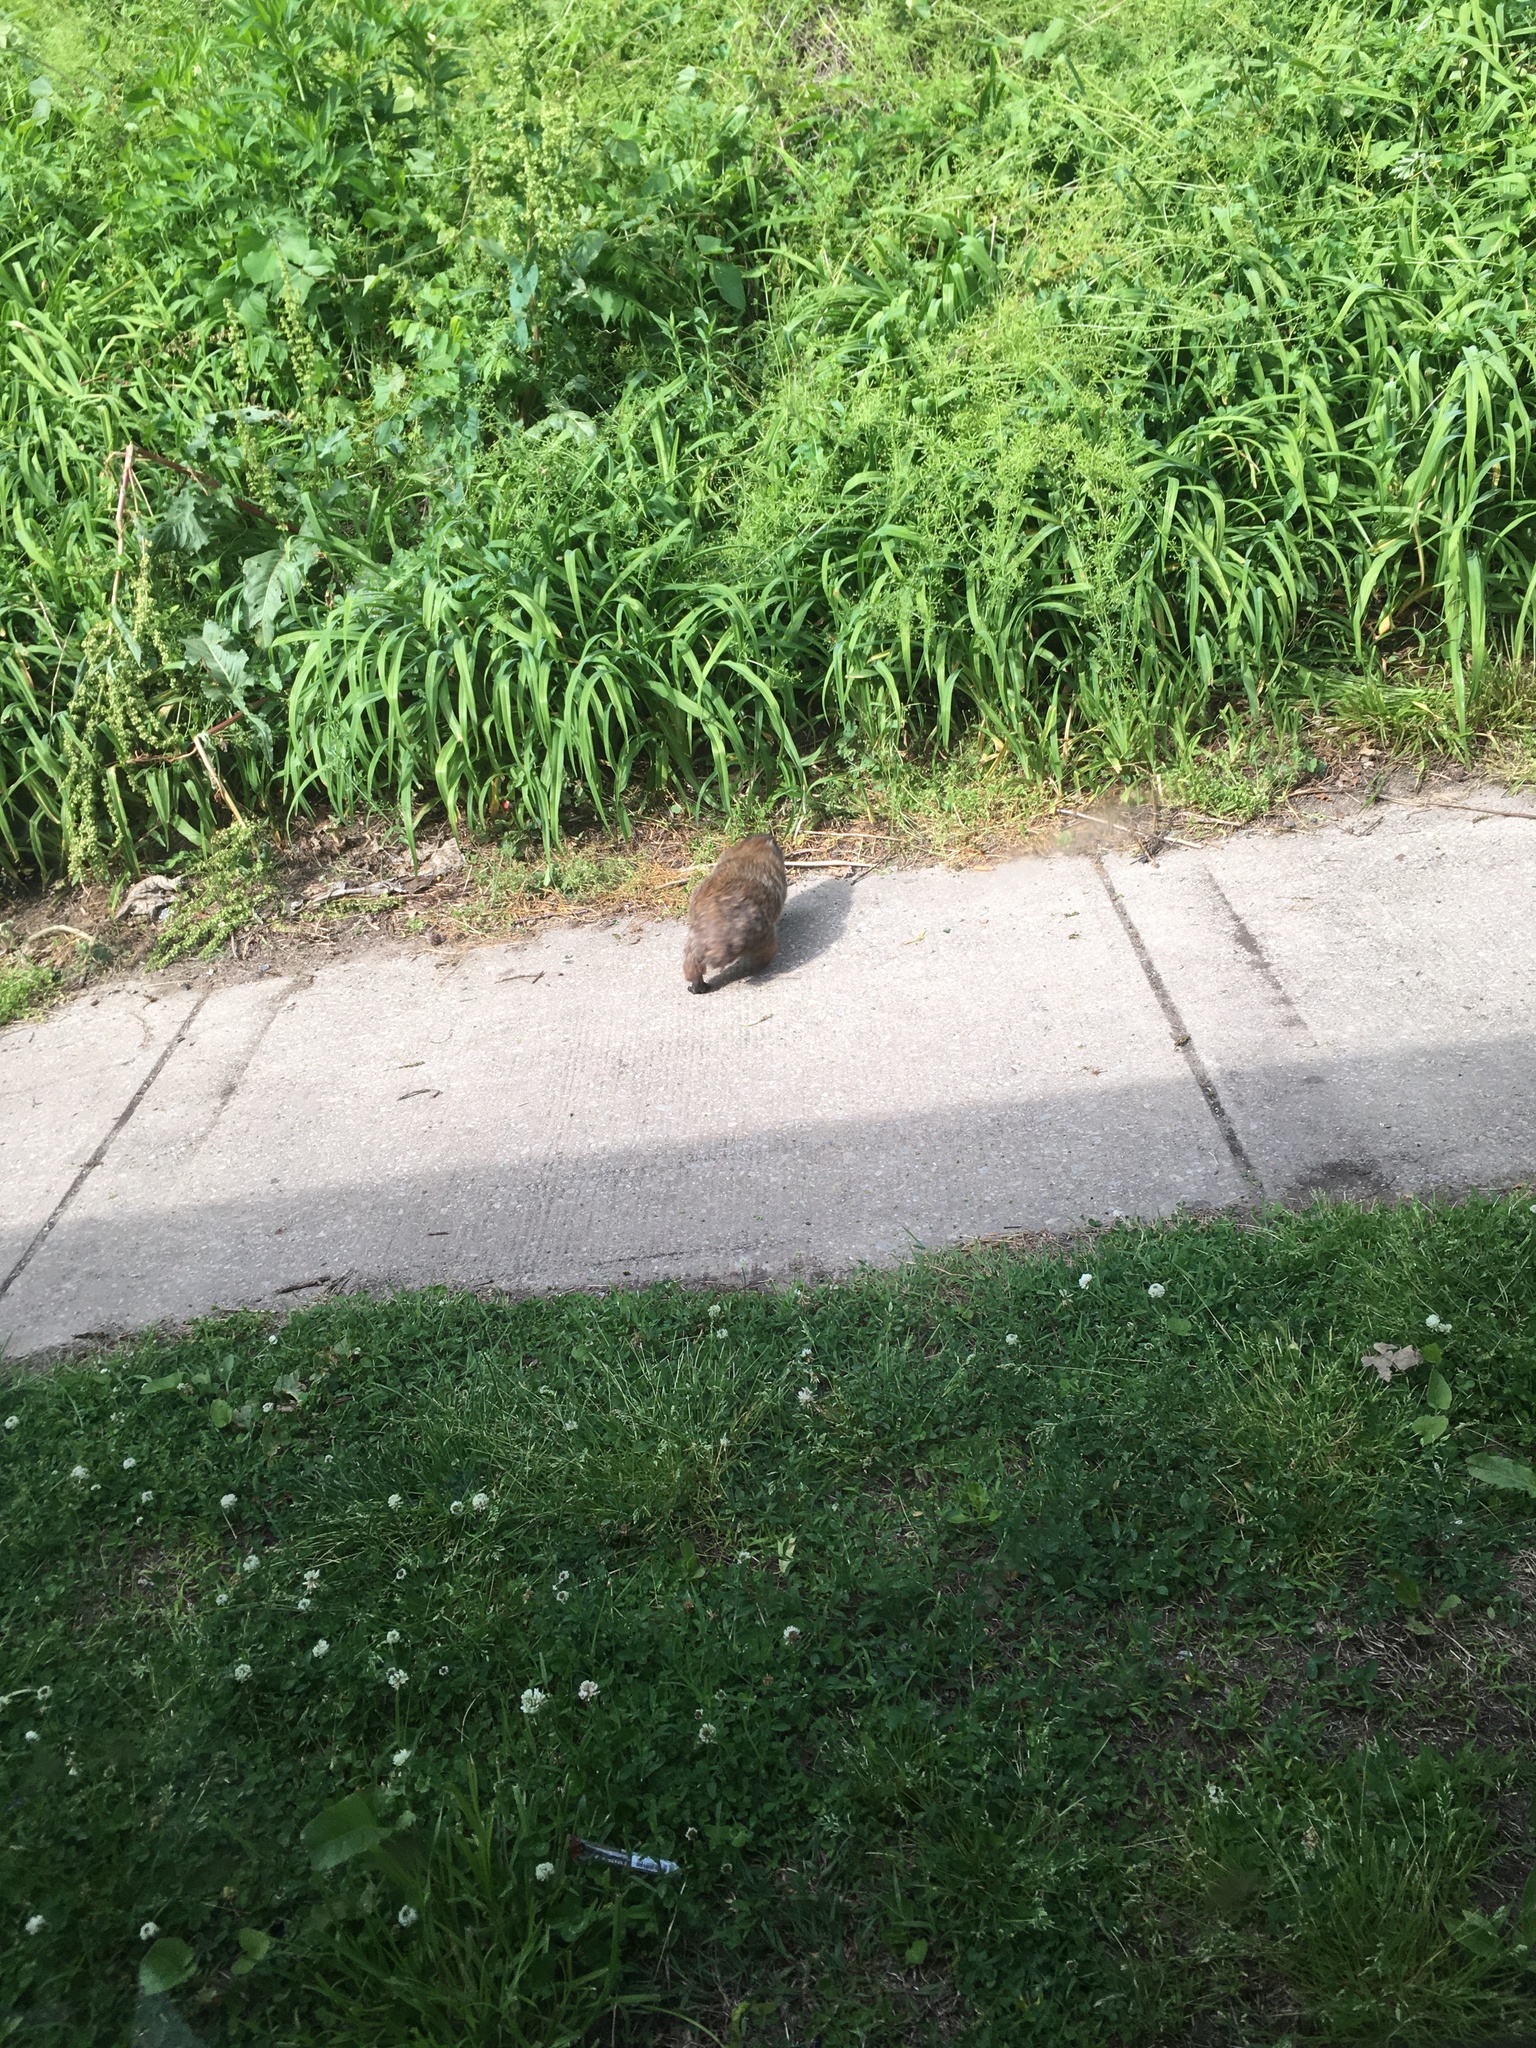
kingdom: Animalia
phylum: Chordata
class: Mammalia
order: Rodentia
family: Sciuridae
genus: Marmota
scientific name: Marmota monax
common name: Groundhog
